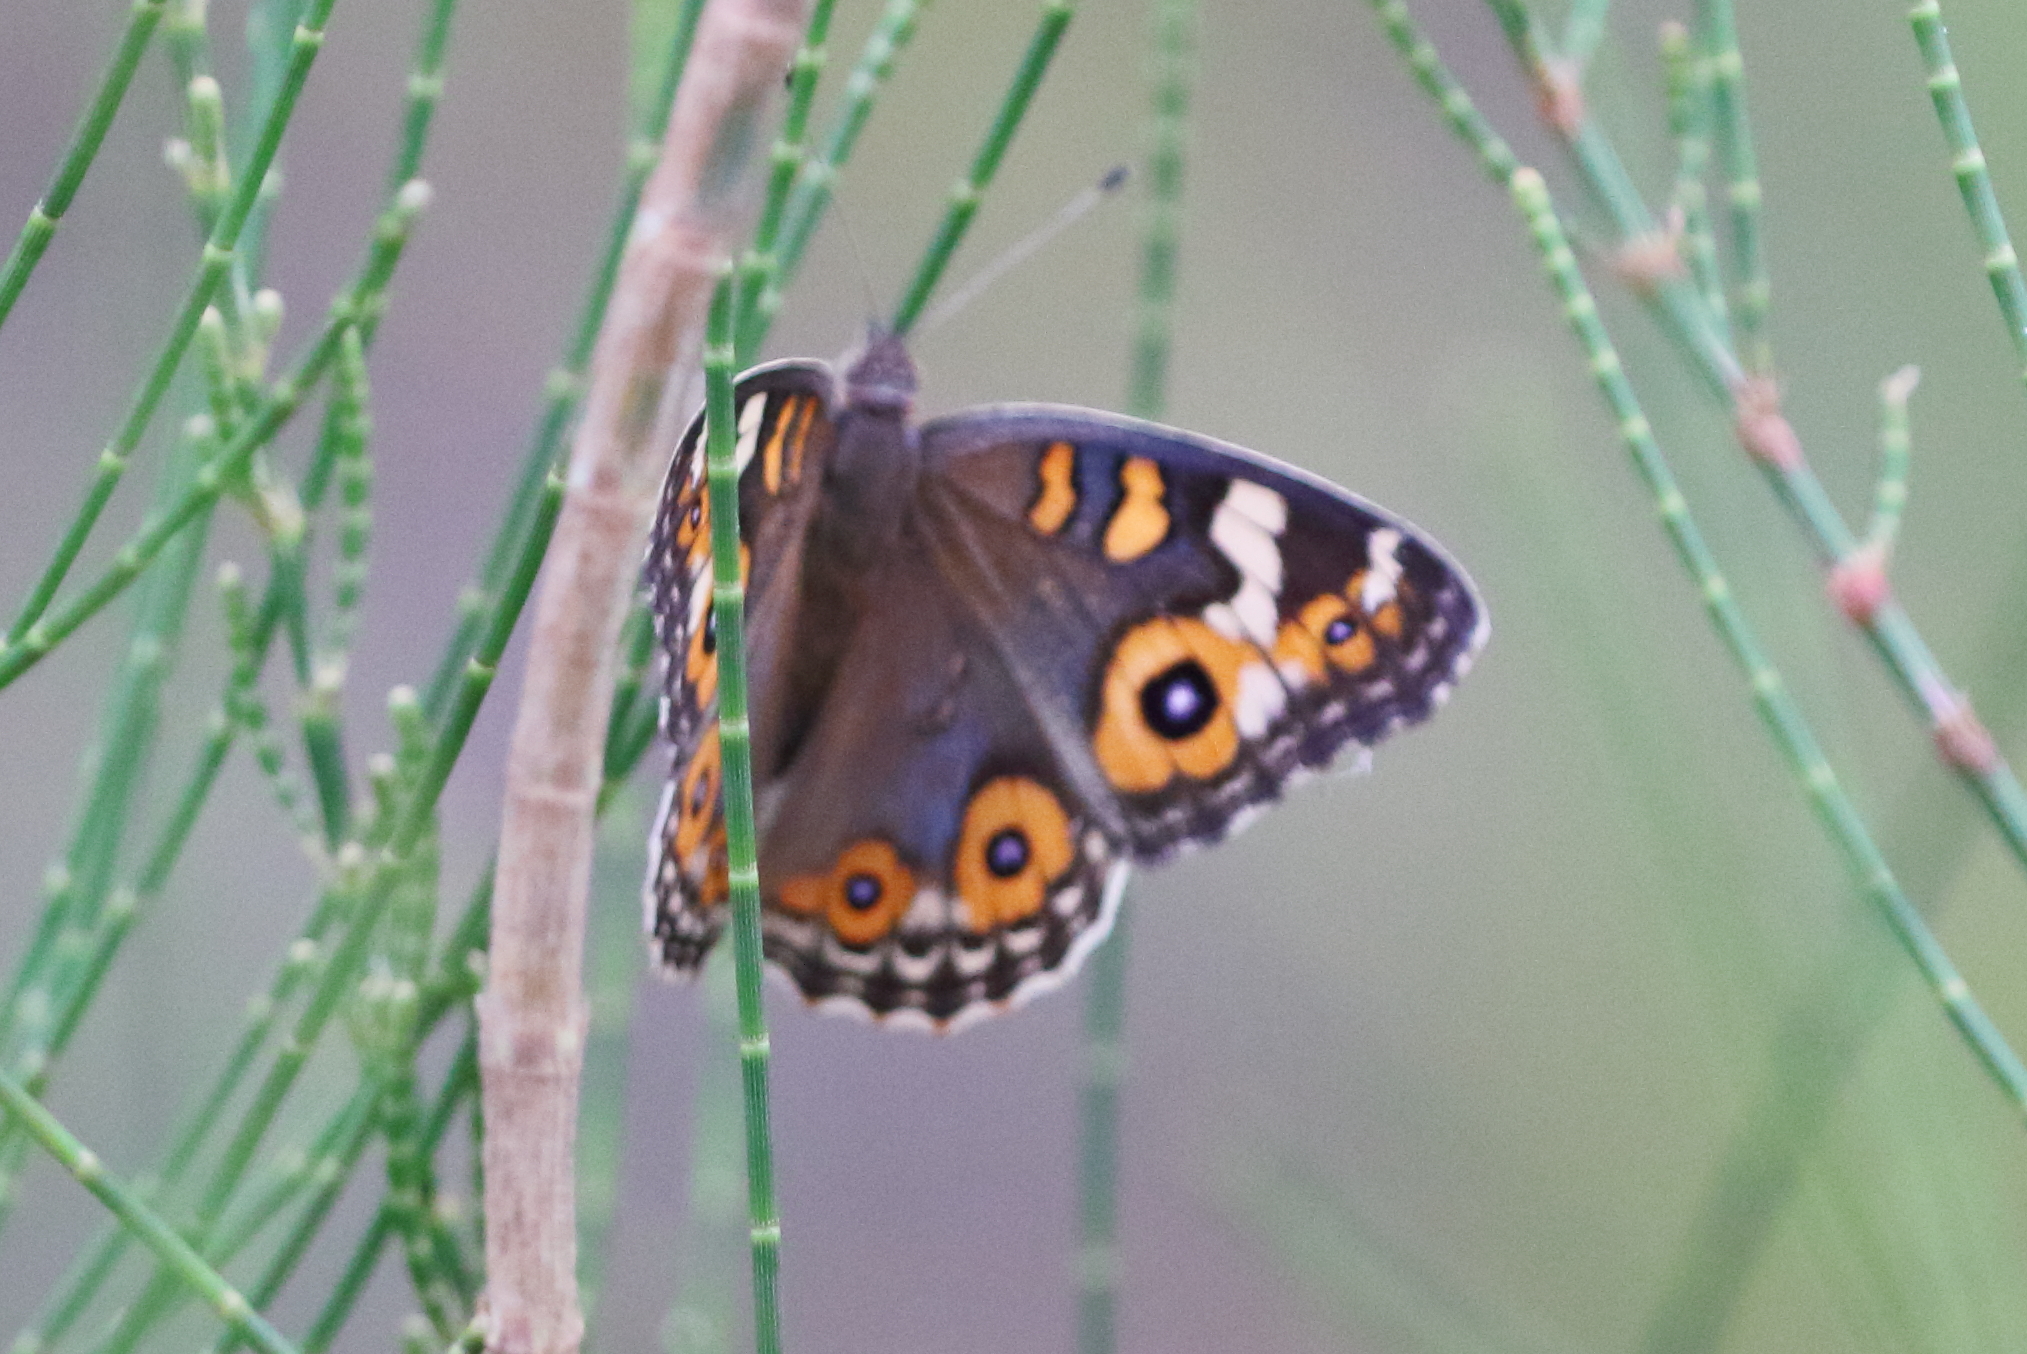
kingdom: Animalia
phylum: Arthropoda
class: Insecta
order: Lepidoptera
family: Nymphalidae
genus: Junonia
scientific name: Junonia villida
